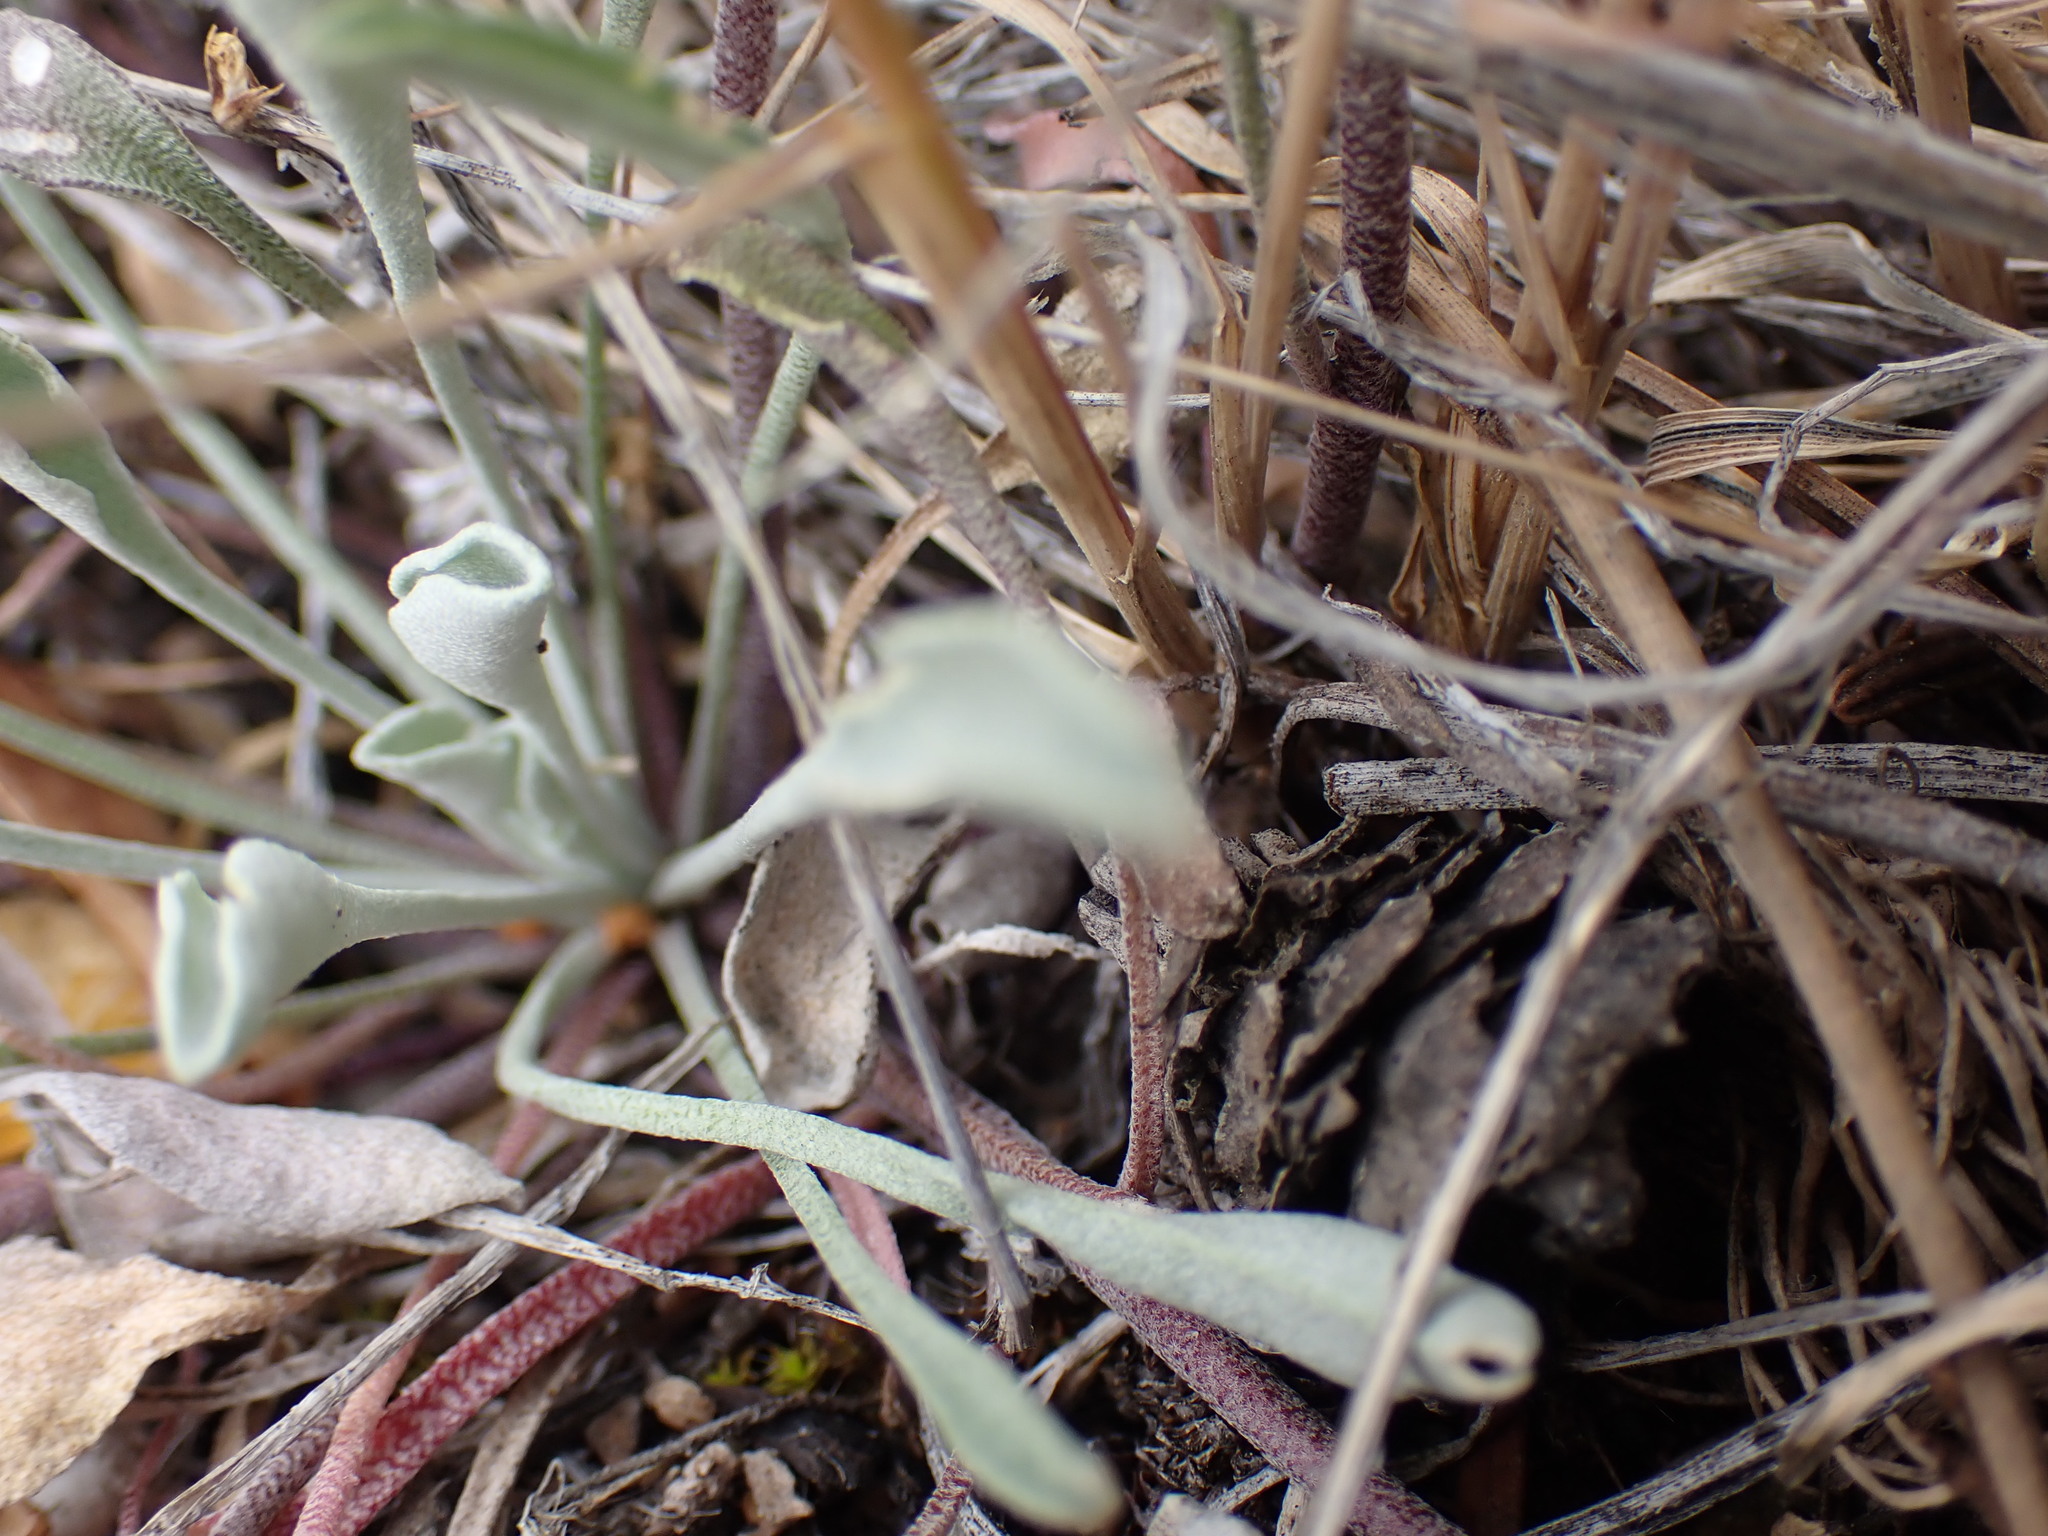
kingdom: Plantae
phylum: Tracheophyta
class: Magnoliopsida
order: Brassicales
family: Brassicaceae
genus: Physaria
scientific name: Physaria douglasii
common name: Douglas's bladderpod
